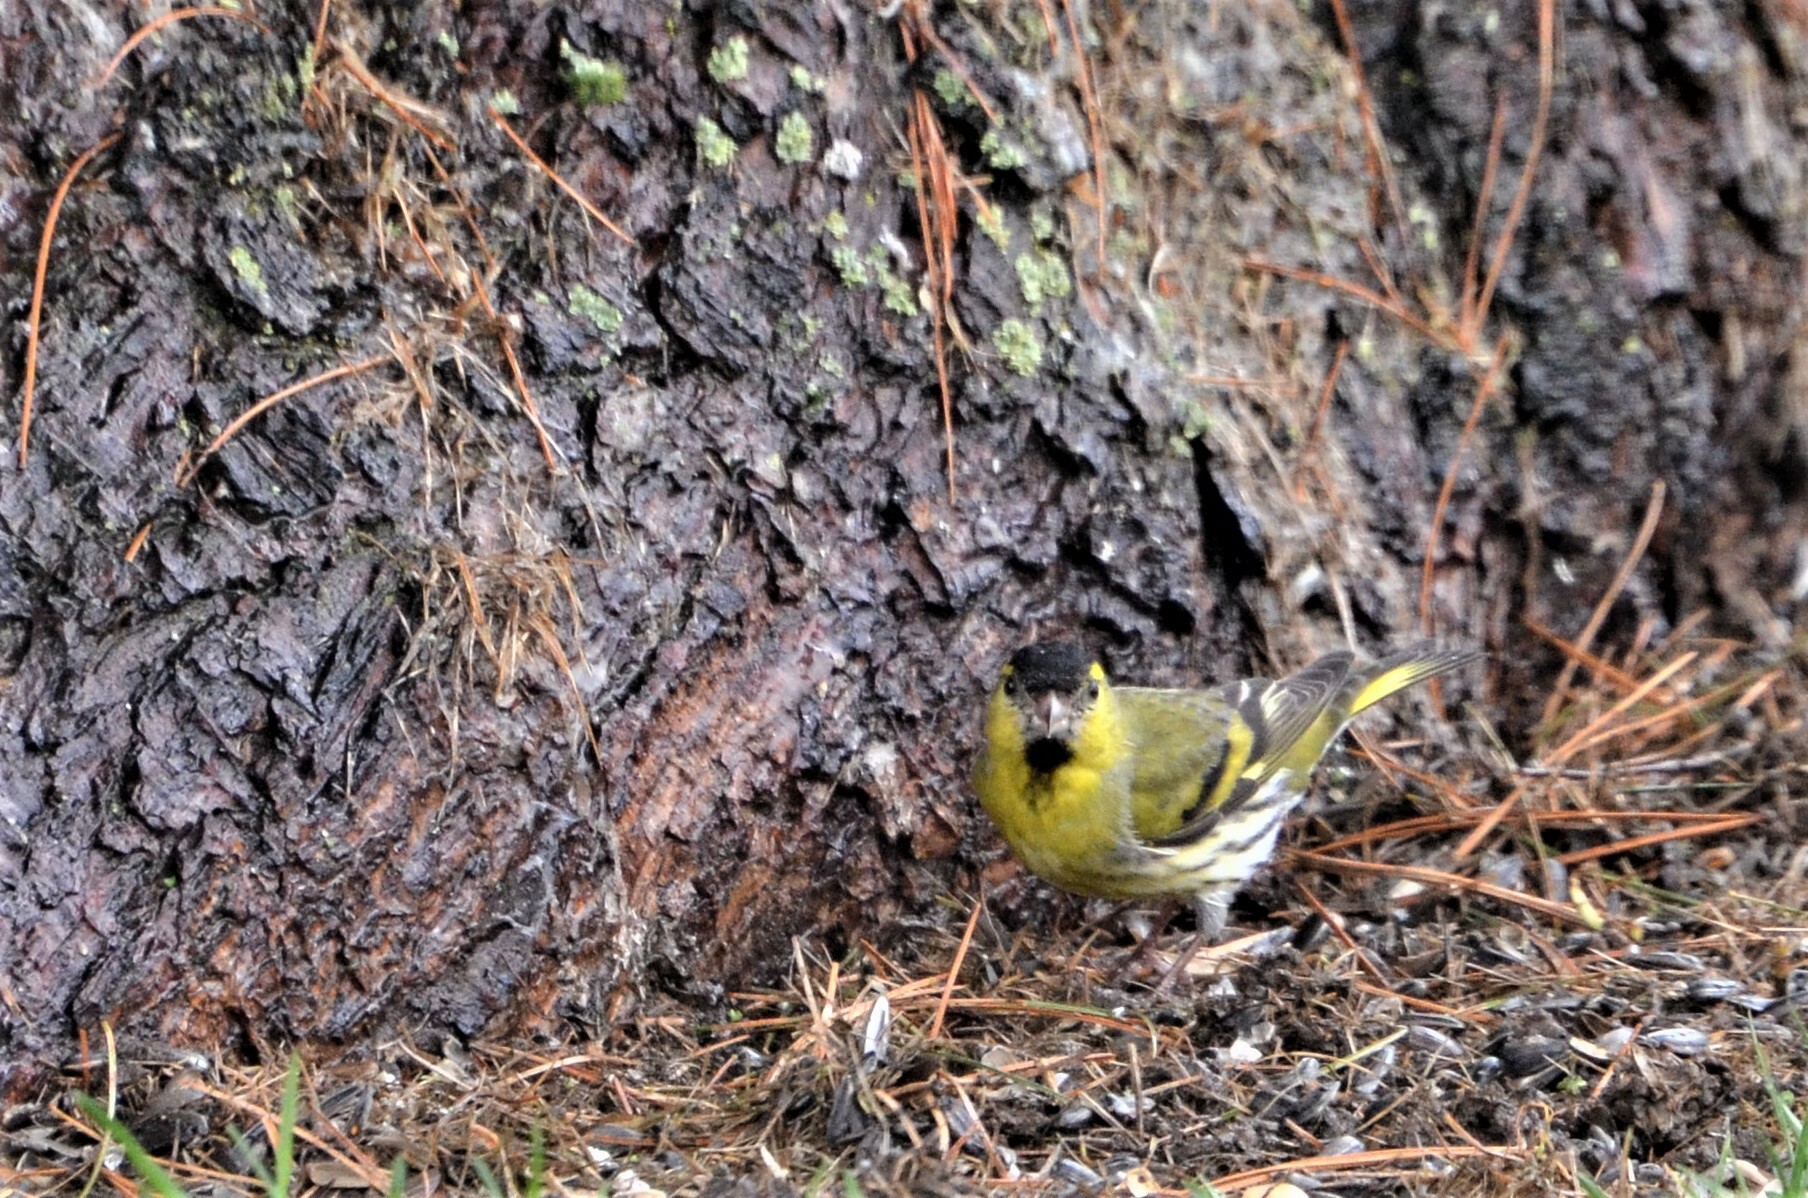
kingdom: Animalia
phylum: Chordata
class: Aves
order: Passeriformes
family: Fringillidae
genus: Spinus
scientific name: Spinus spinus
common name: Eurasian siskin
